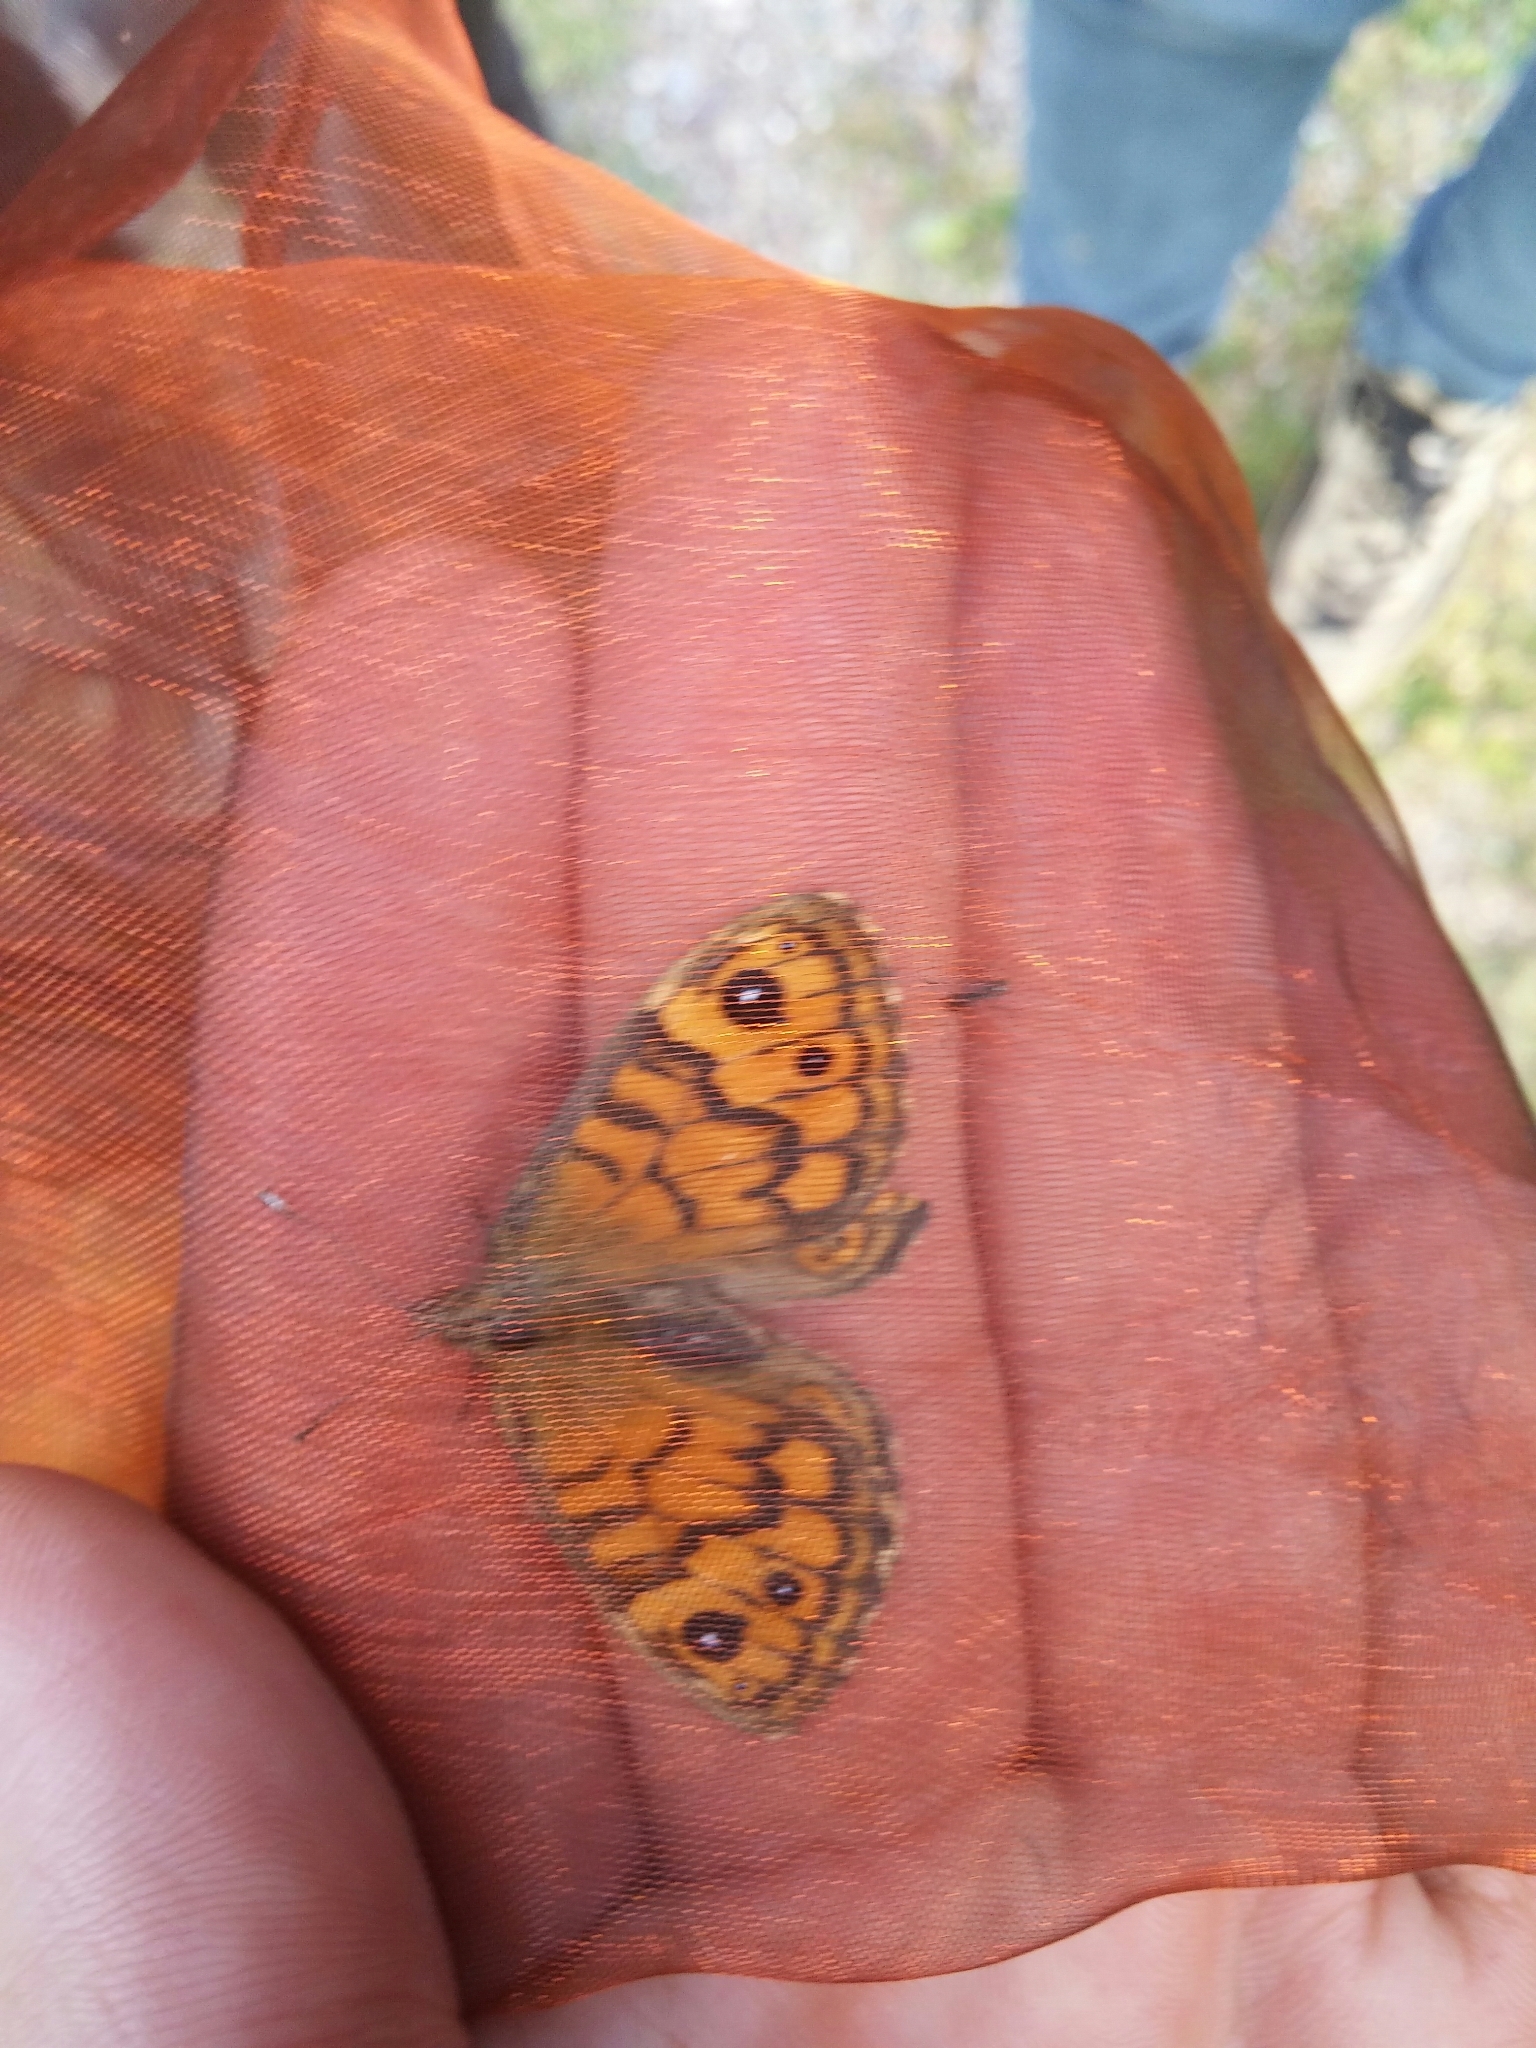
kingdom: Animalia
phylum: Arthropoda
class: Insecta
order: Lepidoptera
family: Nymphalidae
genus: Pararge
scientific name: Pararge Lasiommata megera
